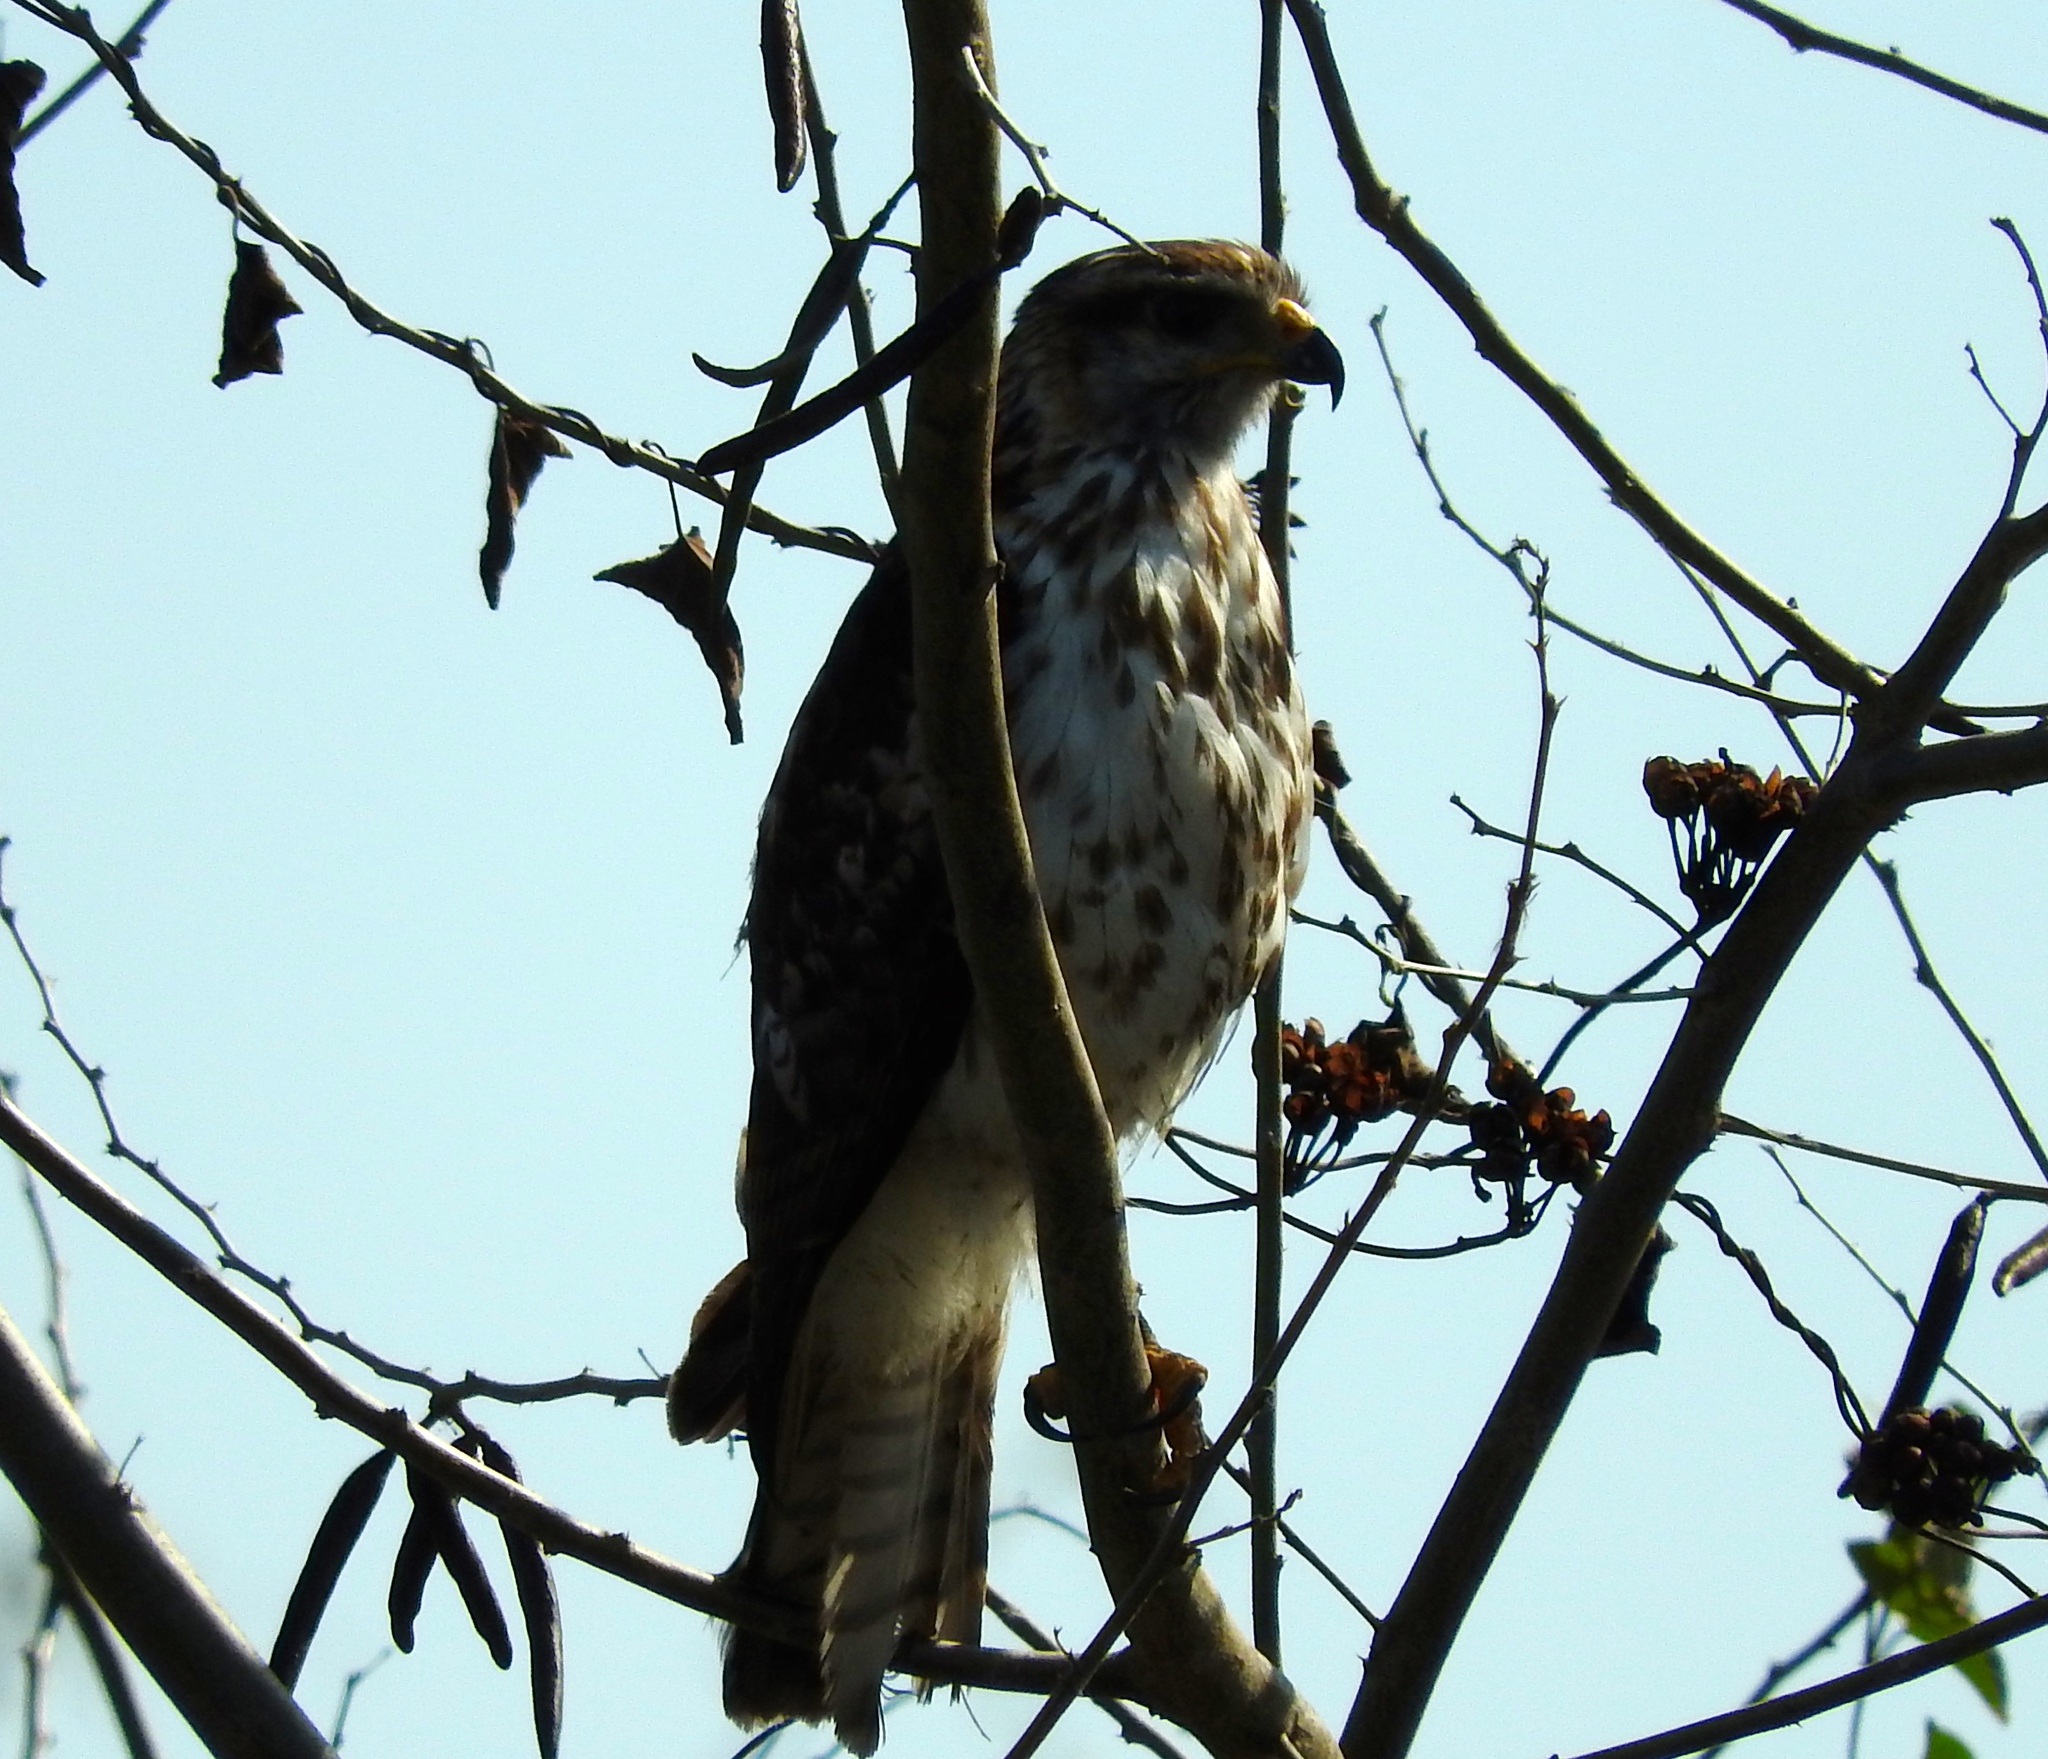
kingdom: Animalia
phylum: Chordata
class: Aves
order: Accipitriformes
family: Accipitridae
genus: Buteo
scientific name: Buteo nitidus
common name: Grey-lined hawk
